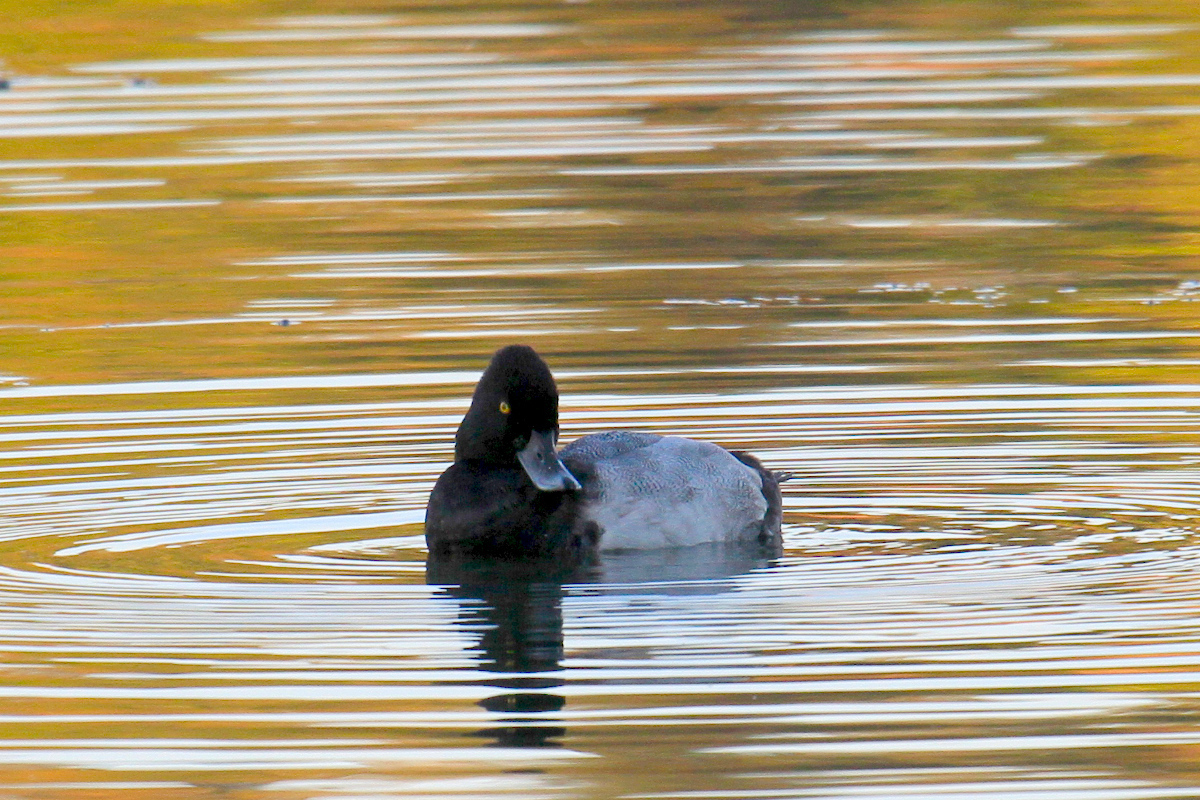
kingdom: Animalia
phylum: Chordata
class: Aves
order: Anseriformes
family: Anatidae
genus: Aythya
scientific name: Aythya affinis
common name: Lesser scaup
